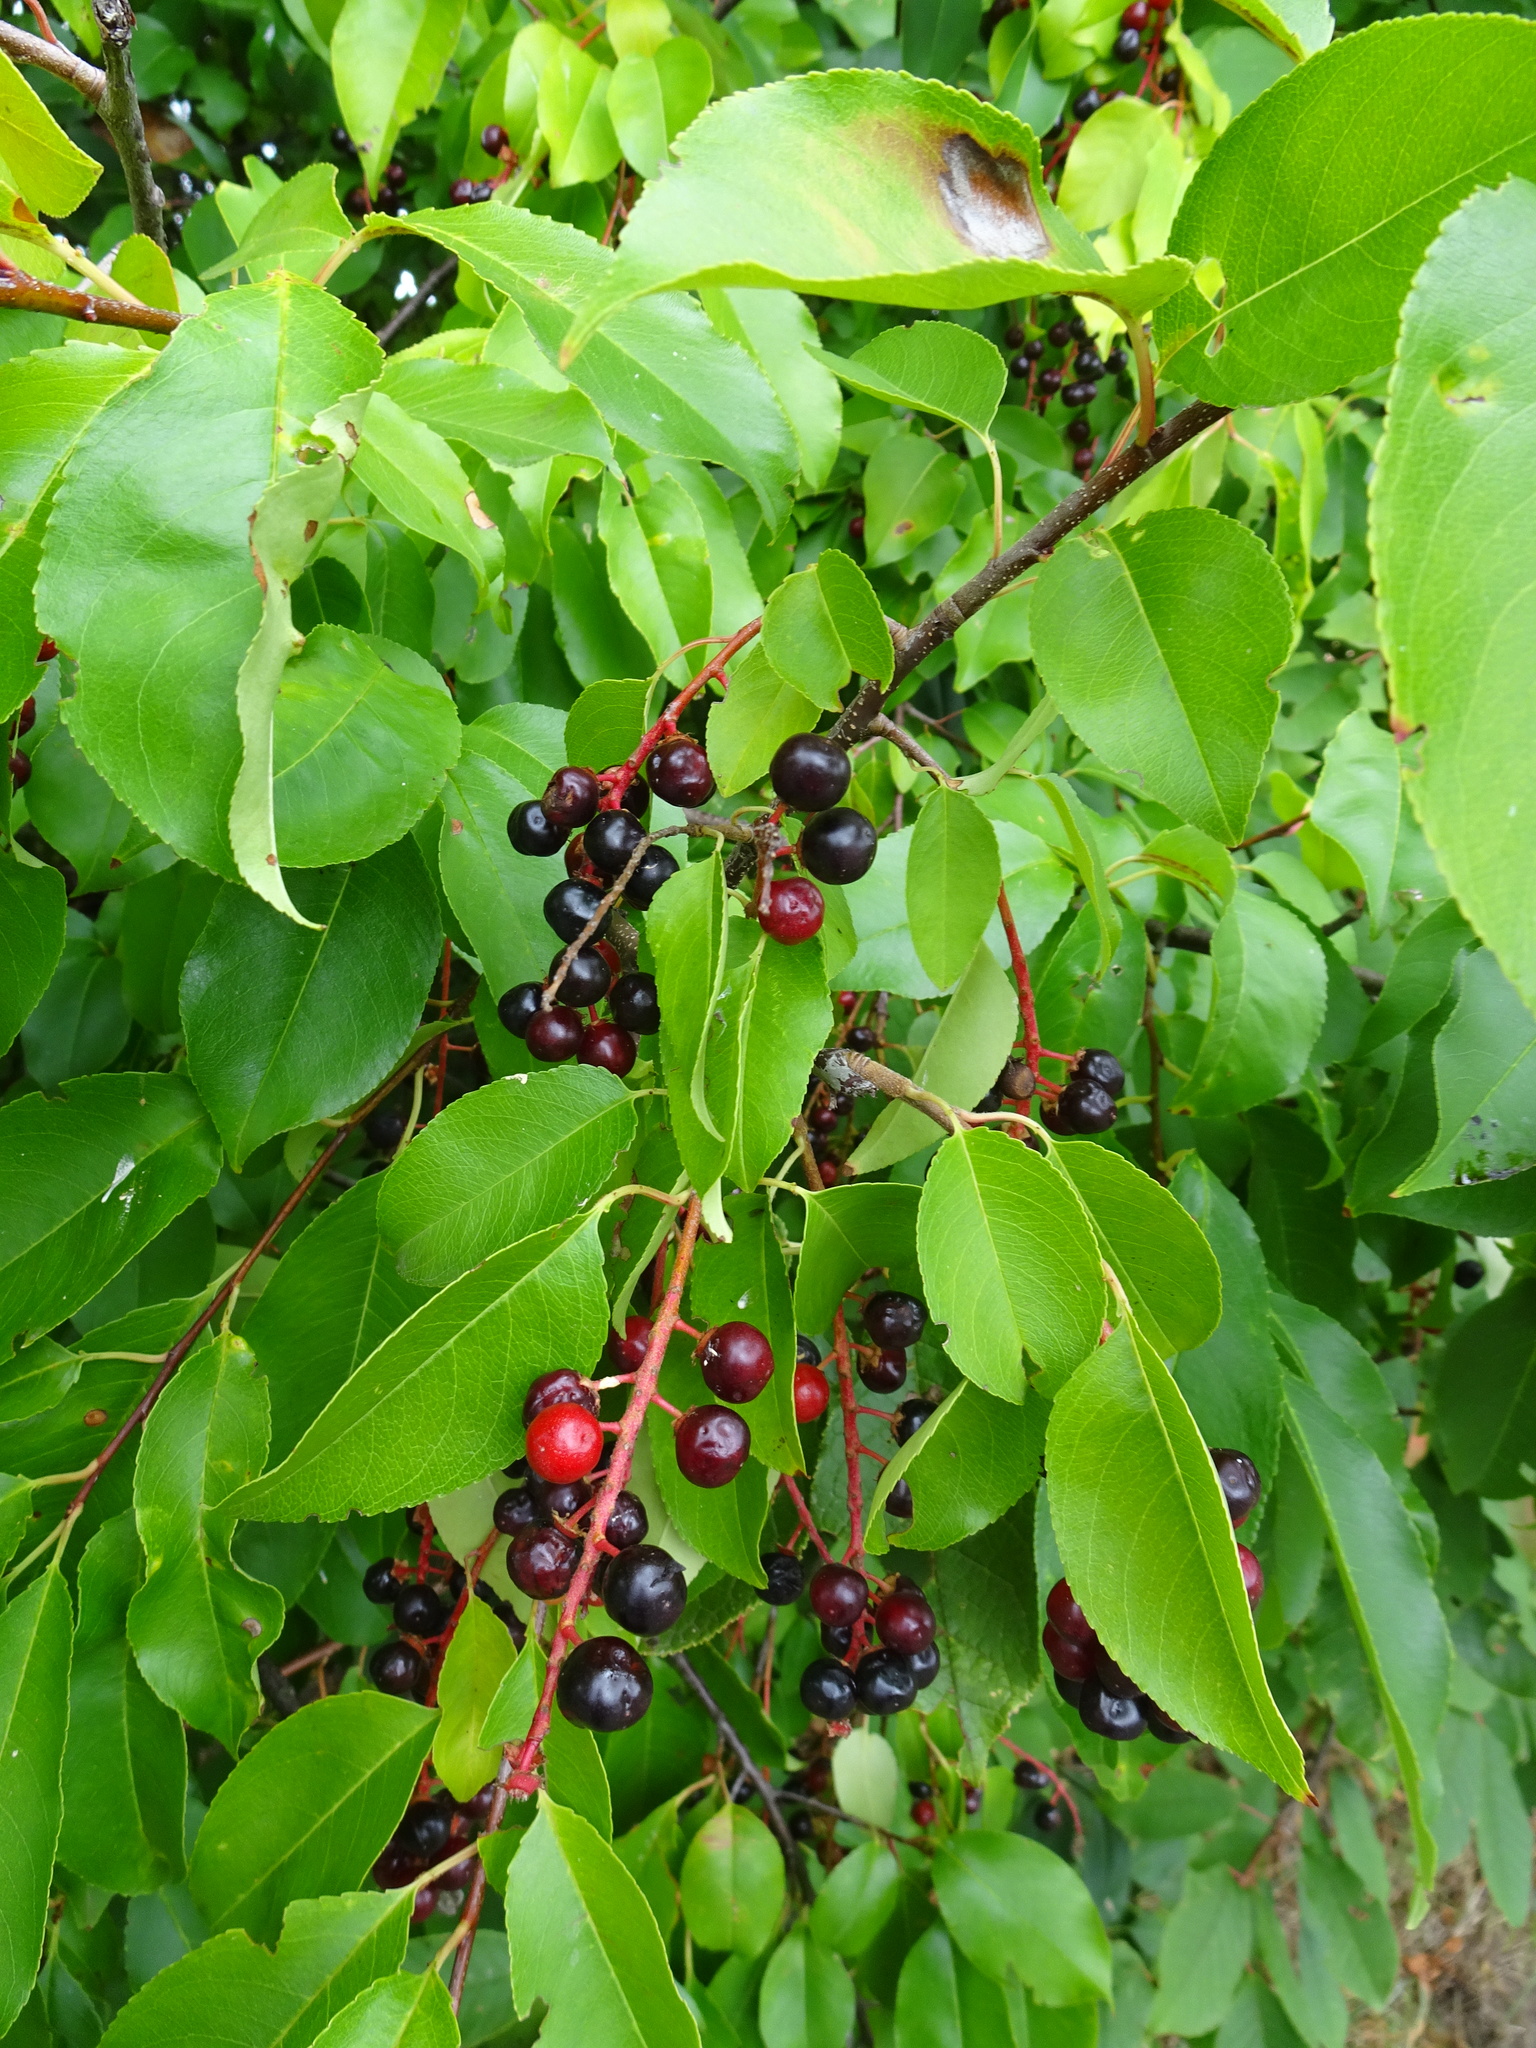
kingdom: Plantae
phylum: Tracheophyta
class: Magnoliopsida
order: Rosales
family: Rosaceae
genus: Prunus
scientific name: Prunus padus
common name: Bird cherry
